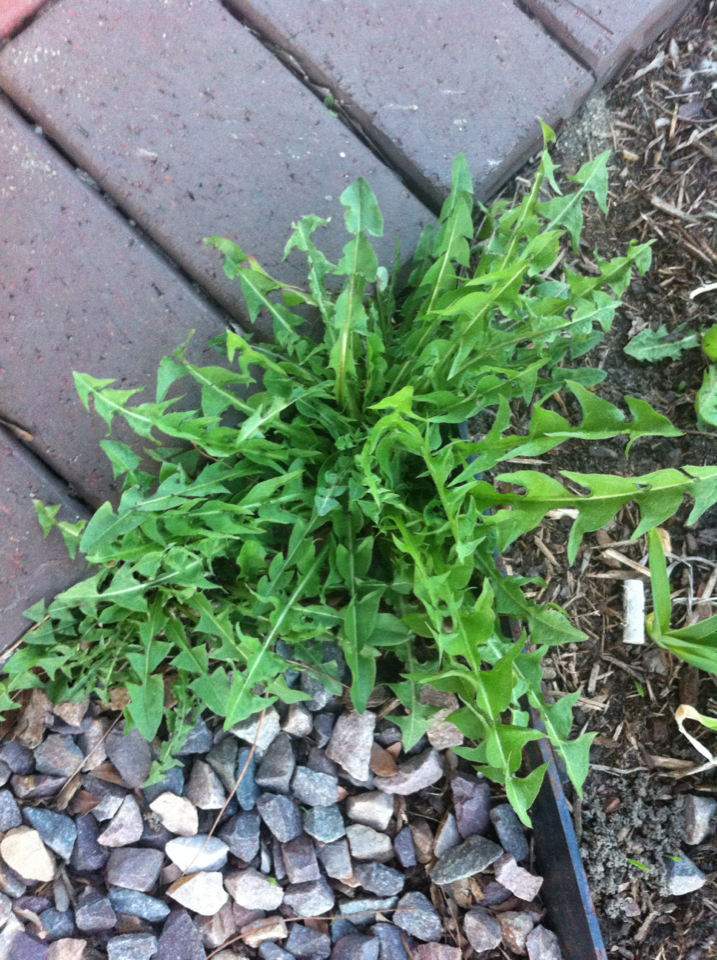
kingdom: Plantae
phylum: Tracheophyta
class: Magnoliopsida
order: Asterales
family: Asteraceae
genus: Taraxacum
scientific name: Taraxacum
